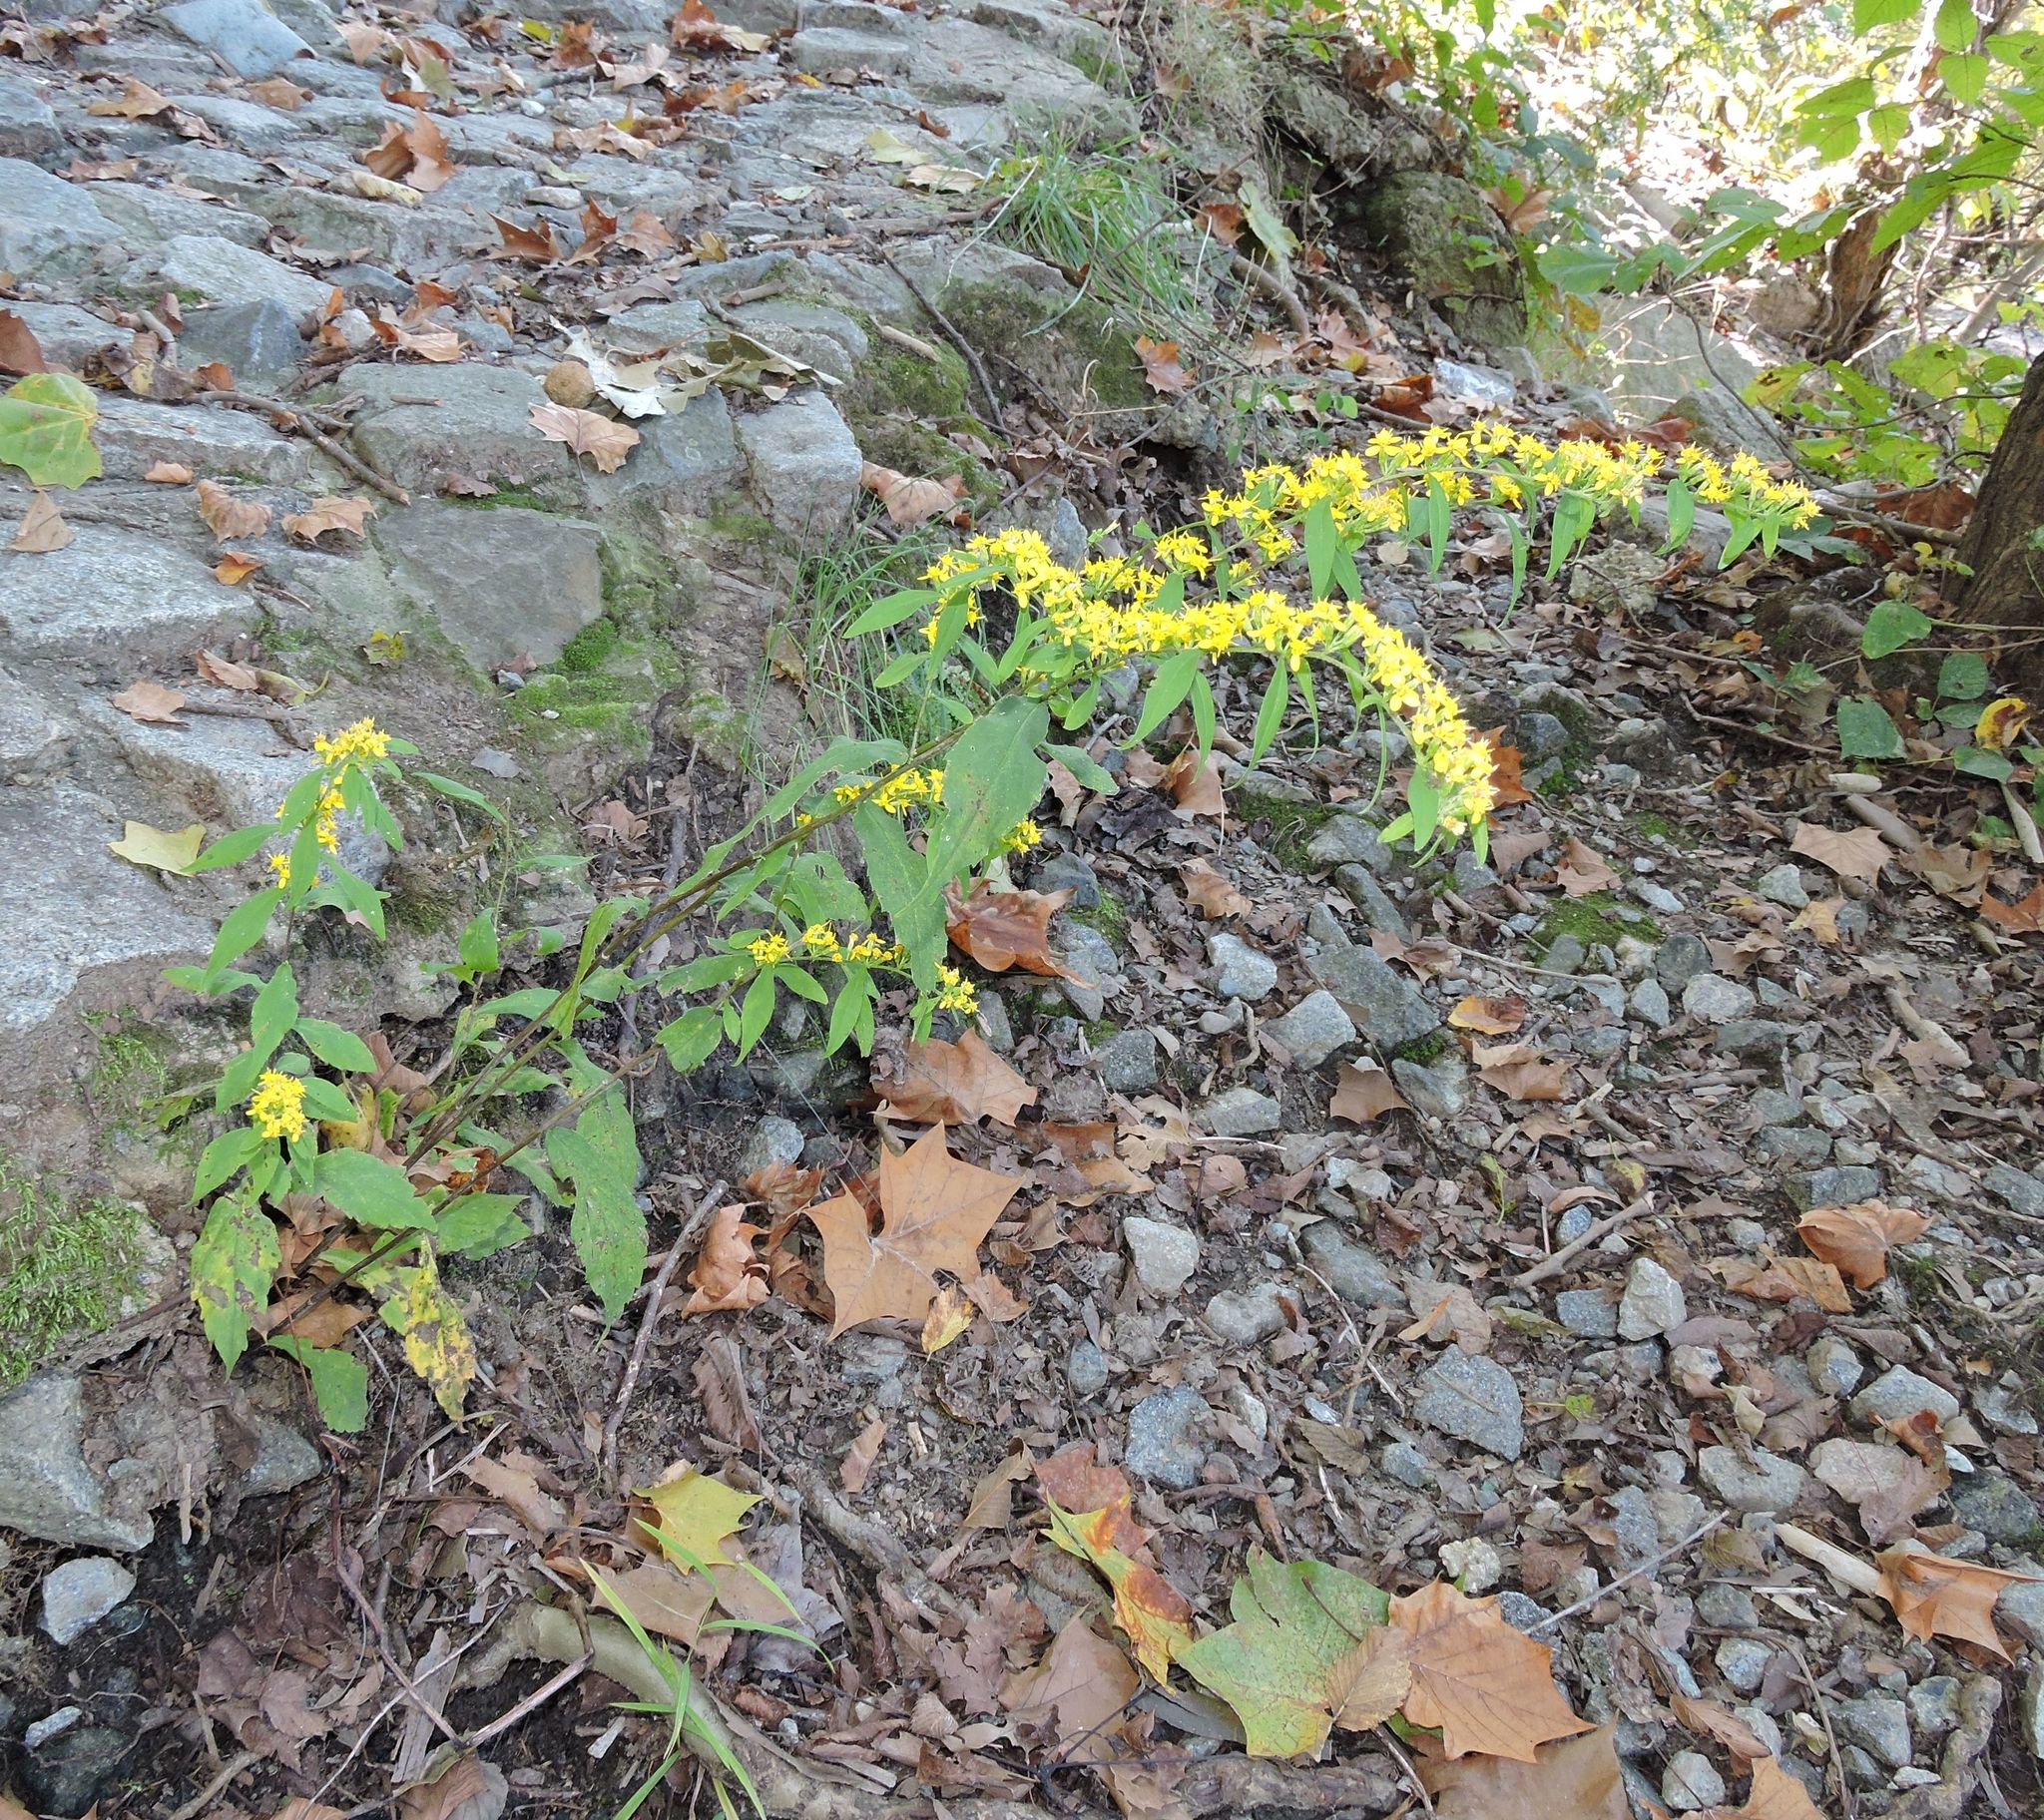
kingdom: Plantae
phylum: Tracheophyta
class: Magnoliopsida
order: Asterales
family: Asteraceae
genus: Solidago
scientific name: Solidago caesia
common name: Woodland goldenrod
